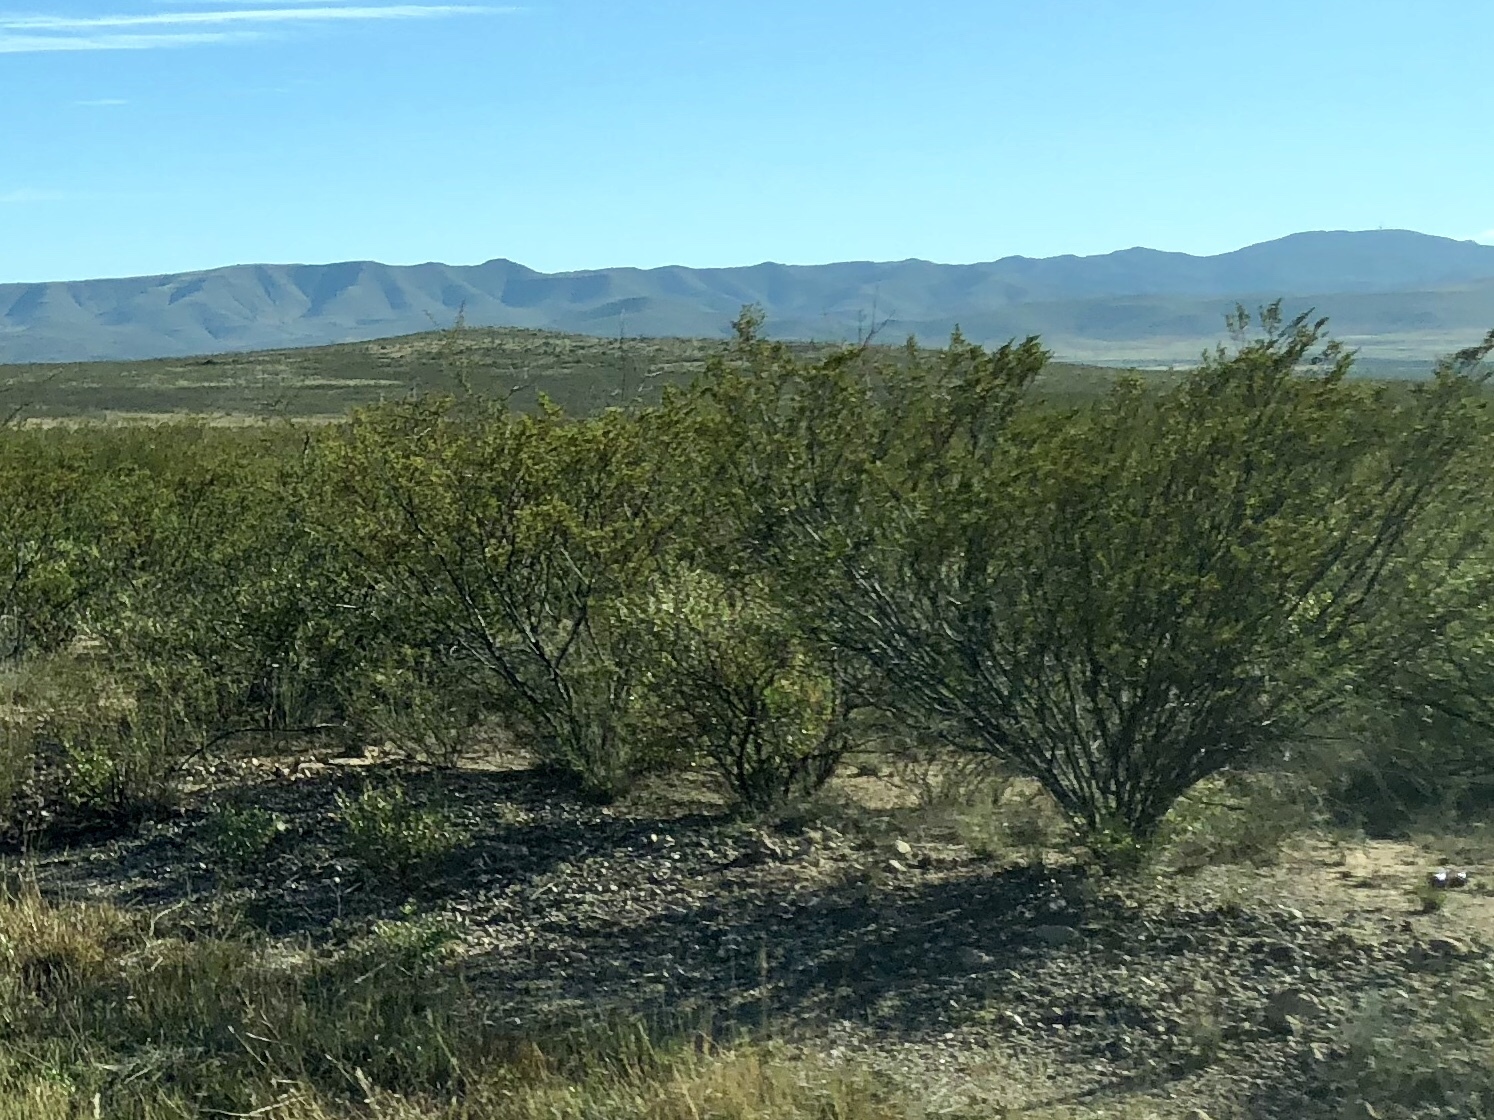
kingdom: Plantae
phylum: Tracheophyta
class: Magnoliopsida
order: Zygophyllales
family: Zygophyllaceae
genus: Larrea
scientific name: Larrea tridentata
